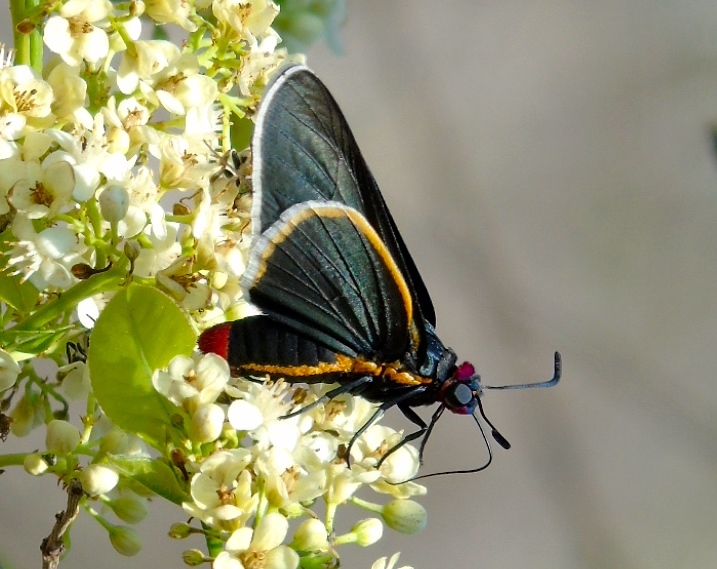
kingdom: Animalia
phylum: Arthropoda
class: Insecta
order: Lepidoptera
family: Hesperiidae
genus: Mysoria
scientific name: Mysoria affinis
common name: Red-collared firetip
